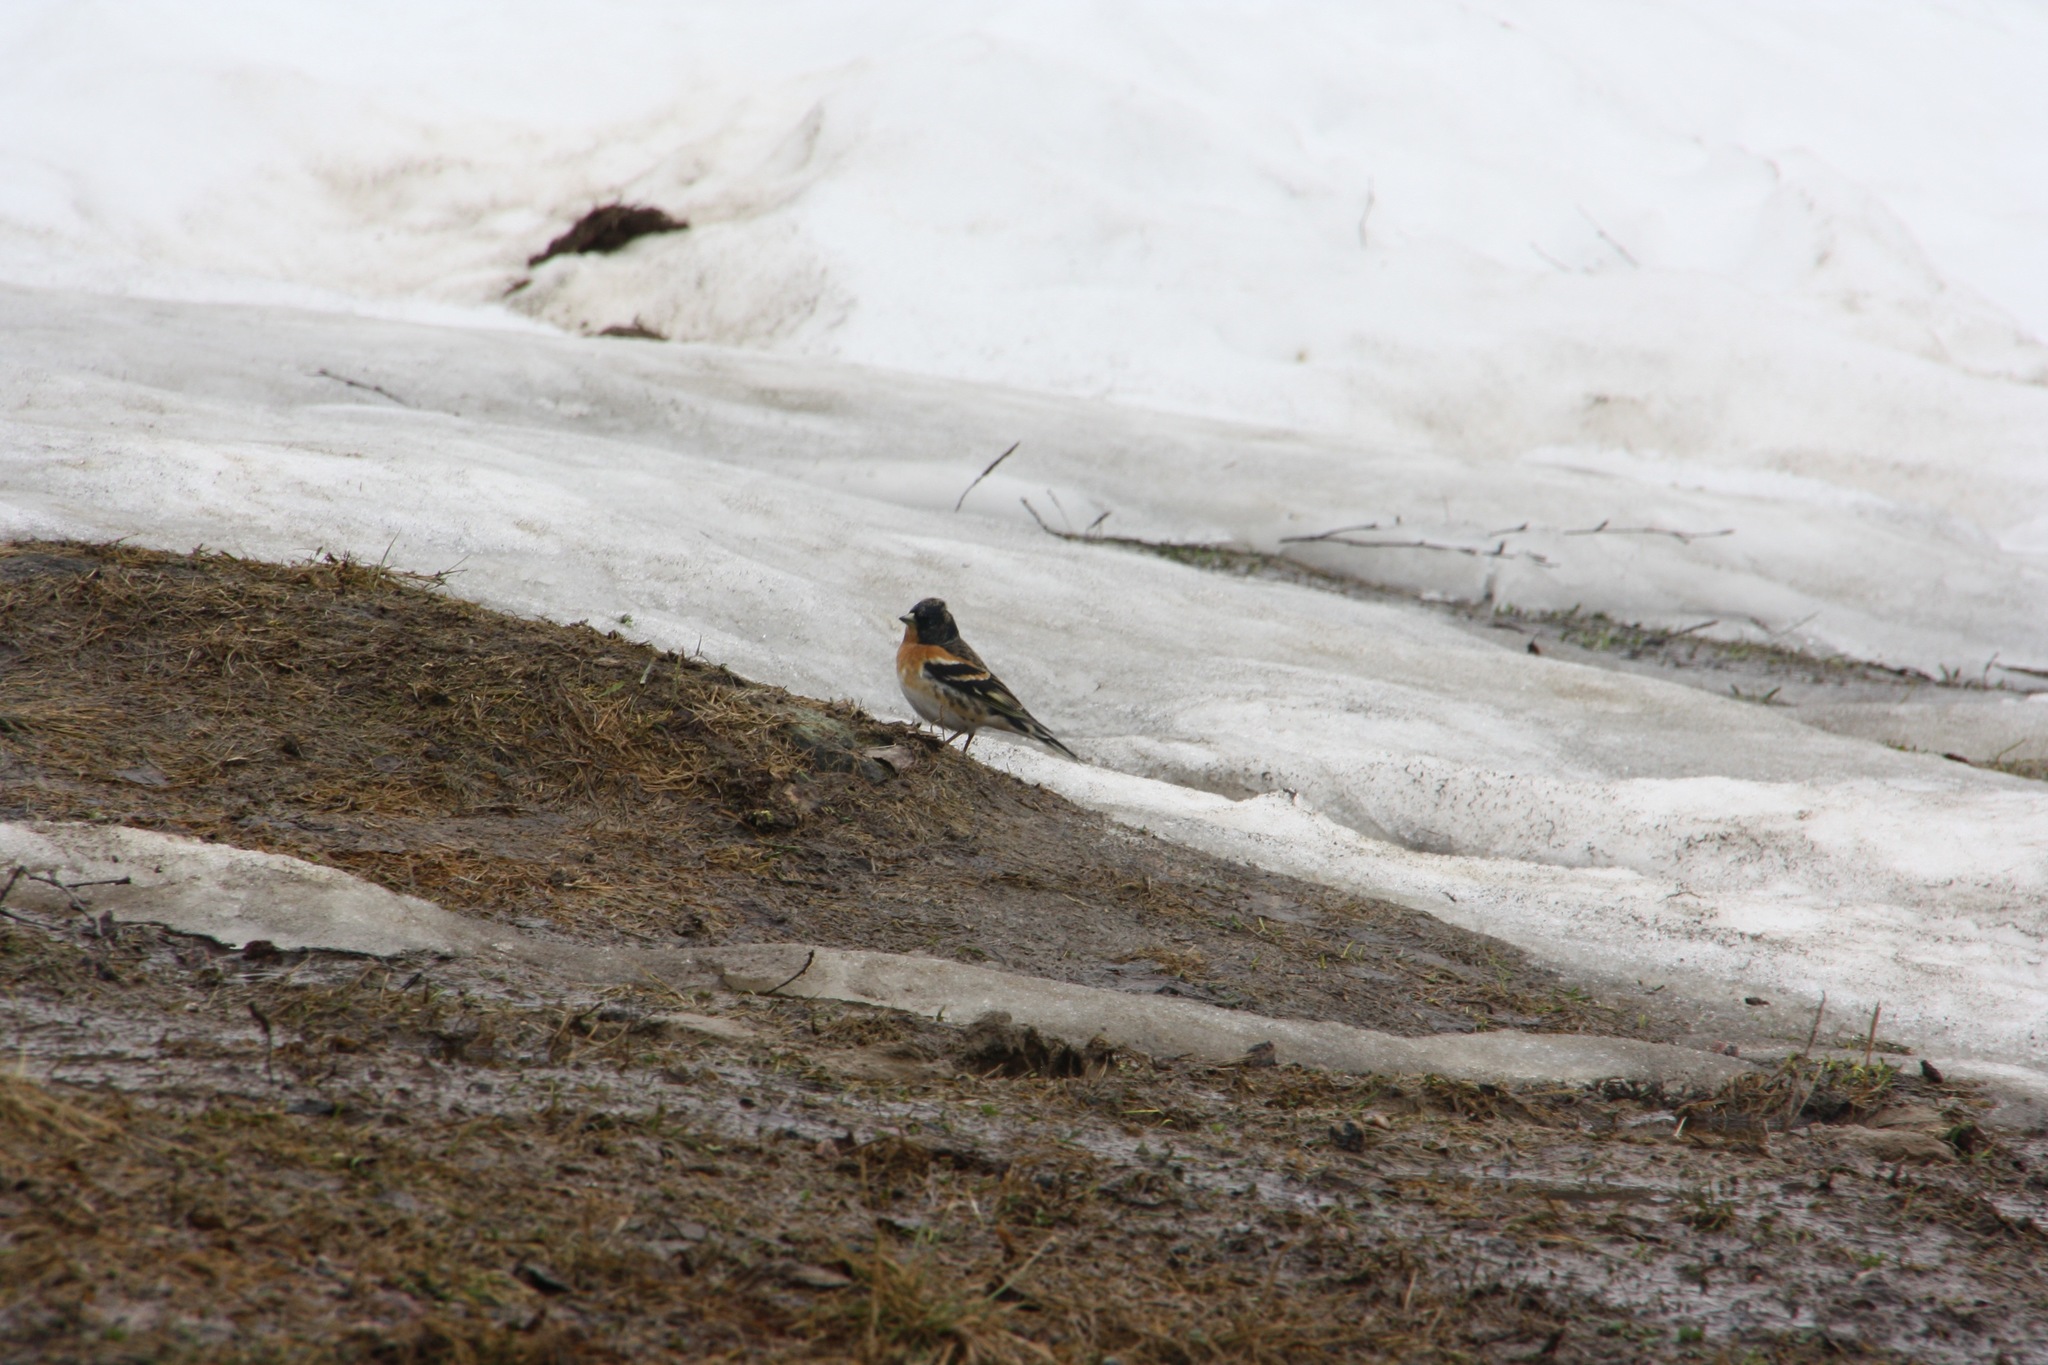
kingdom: Animalia
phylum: Chordata
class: Aves
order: Passeriformes
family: Fringillidae
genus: Fringilla
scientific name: Fringilla montifringilla
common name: Brambling
